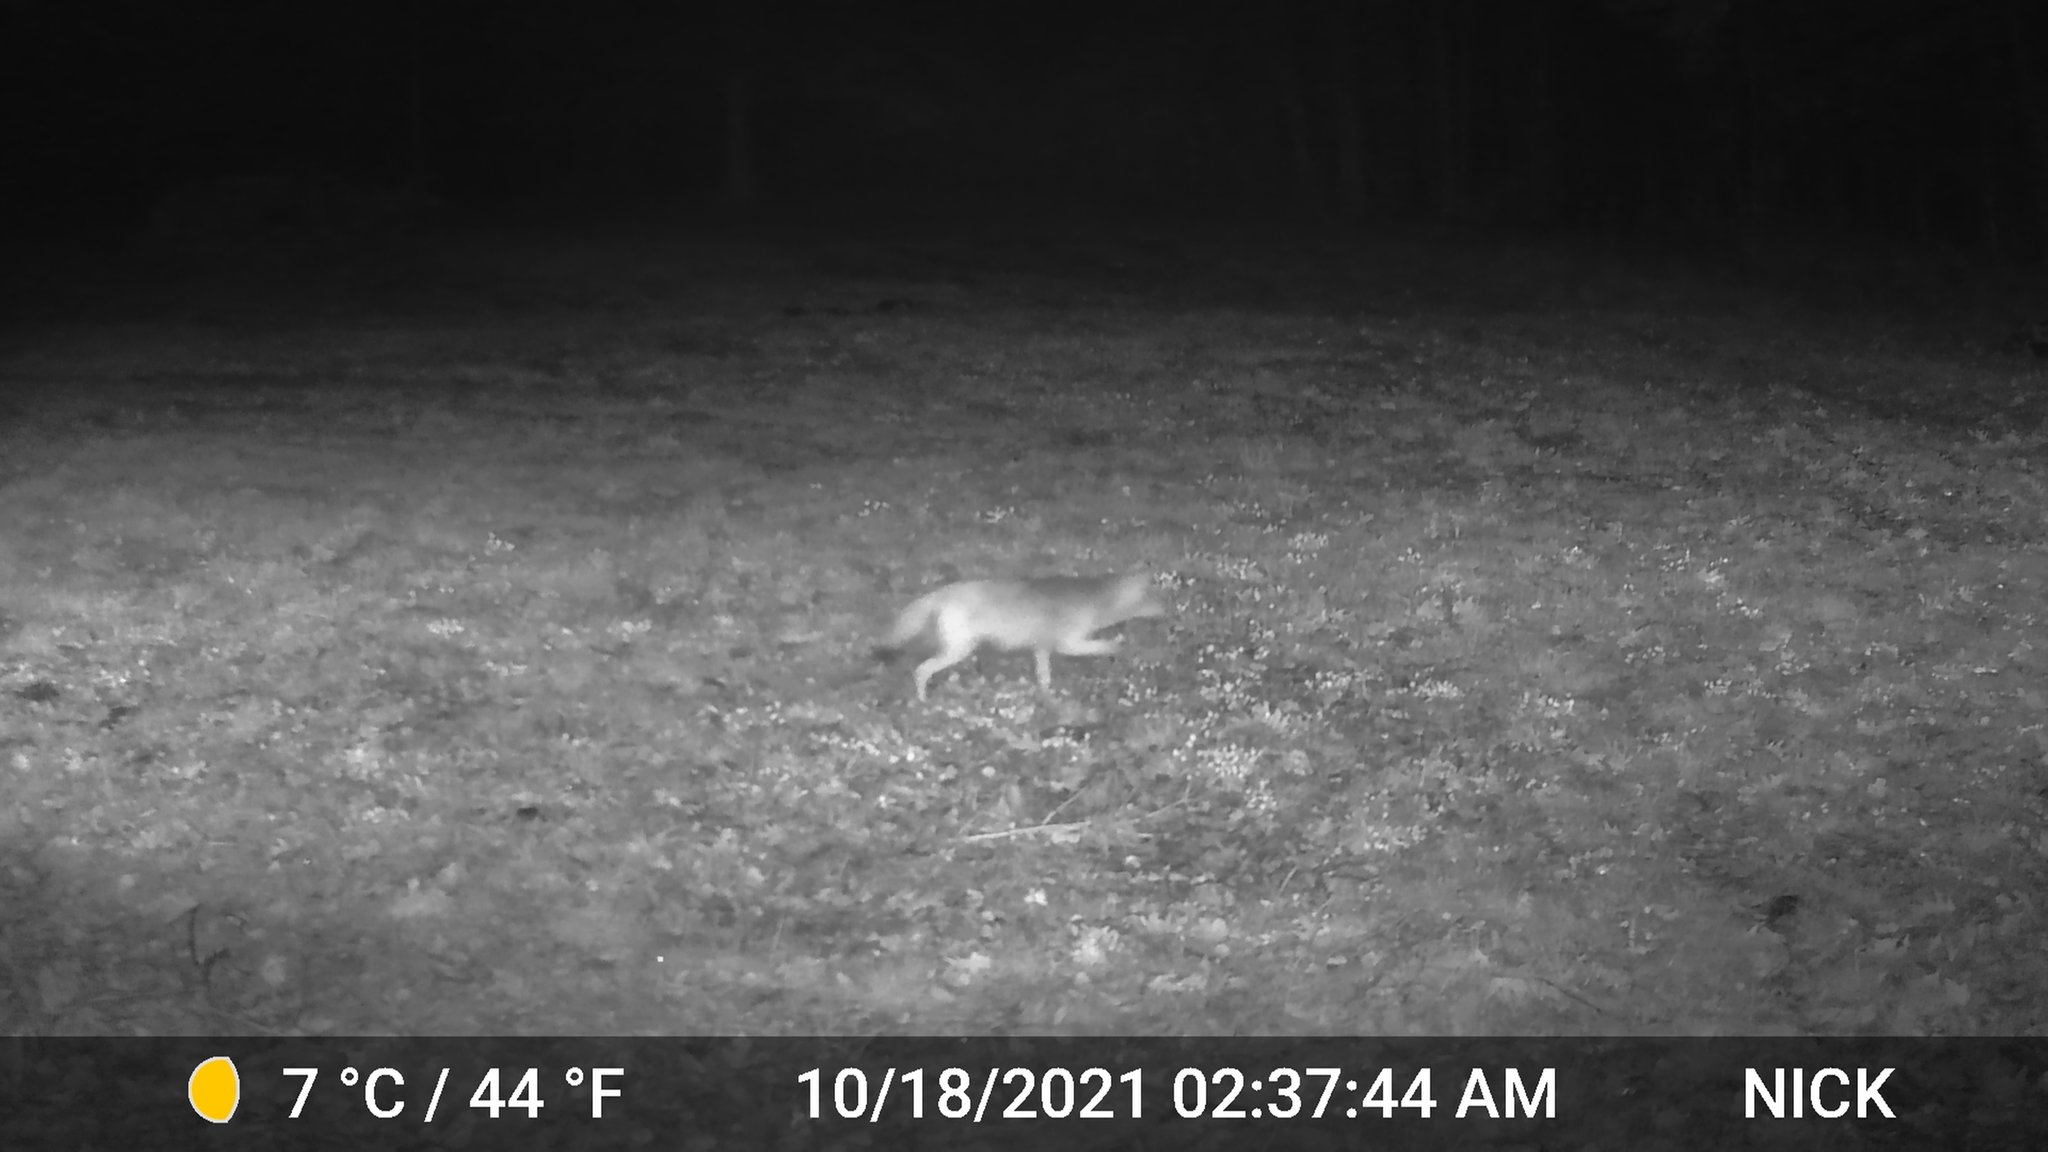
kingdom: Animalia
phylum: Chordata
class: Mammalia
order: Carnivora
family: Canidae
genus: Canis
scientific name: Canis latrans
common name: Coyote
